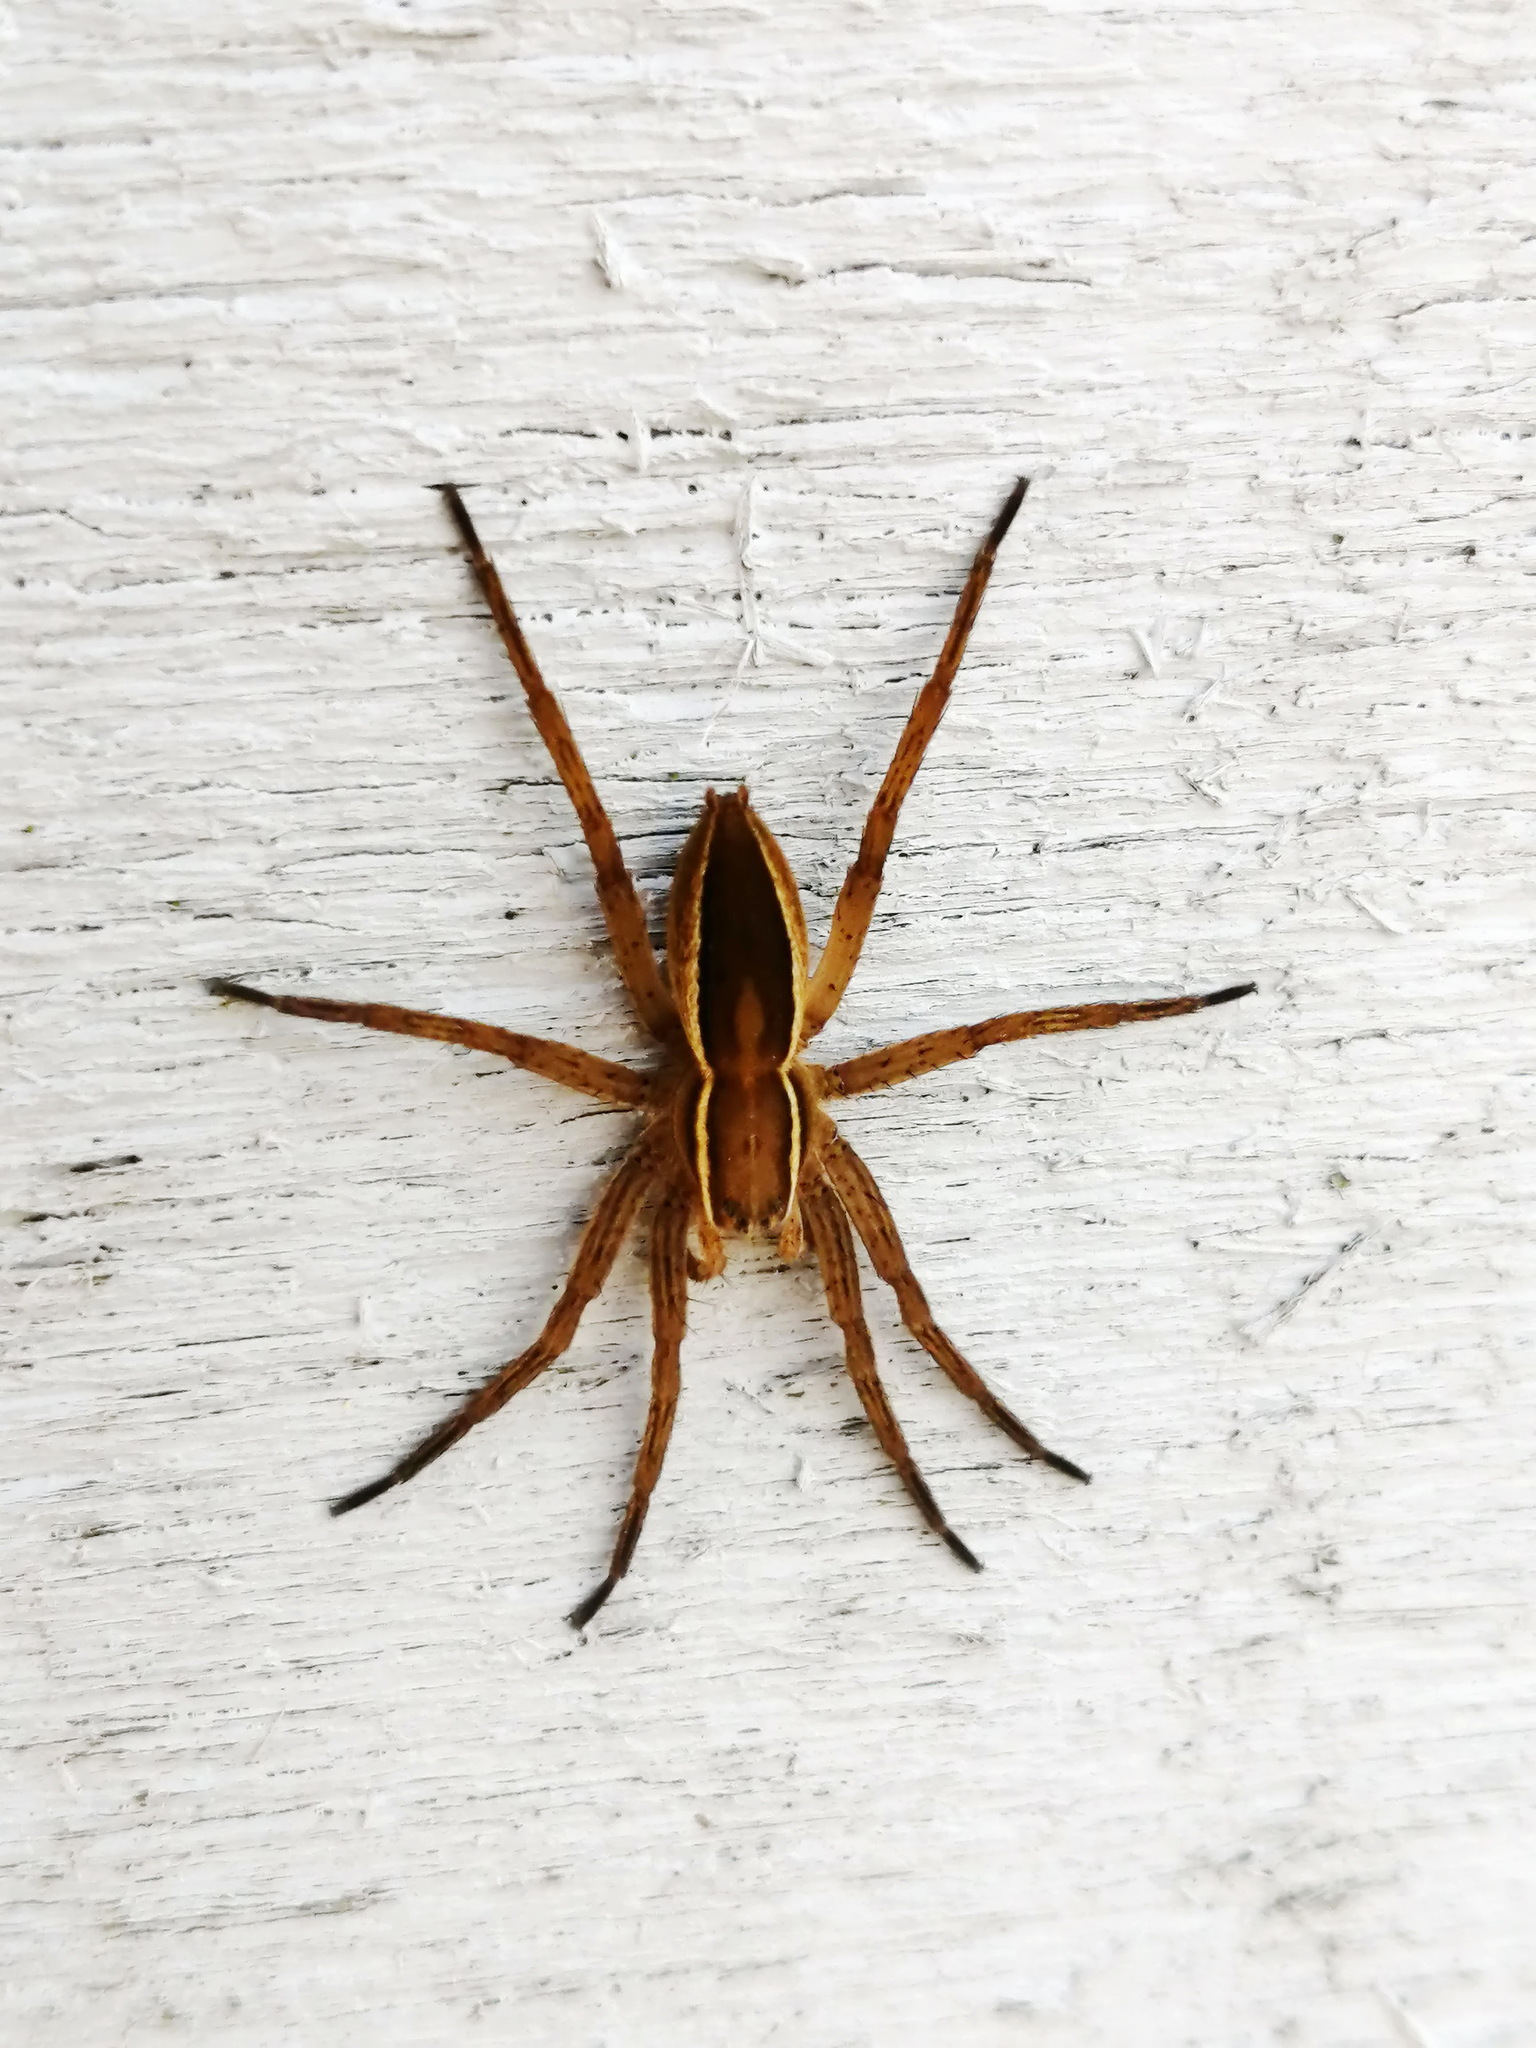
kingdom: Animalia
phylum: Arthropoda
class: Arachnida
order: Araneae
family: Pisauridae
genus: Dolomedes
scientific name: Dolomedes striatus
